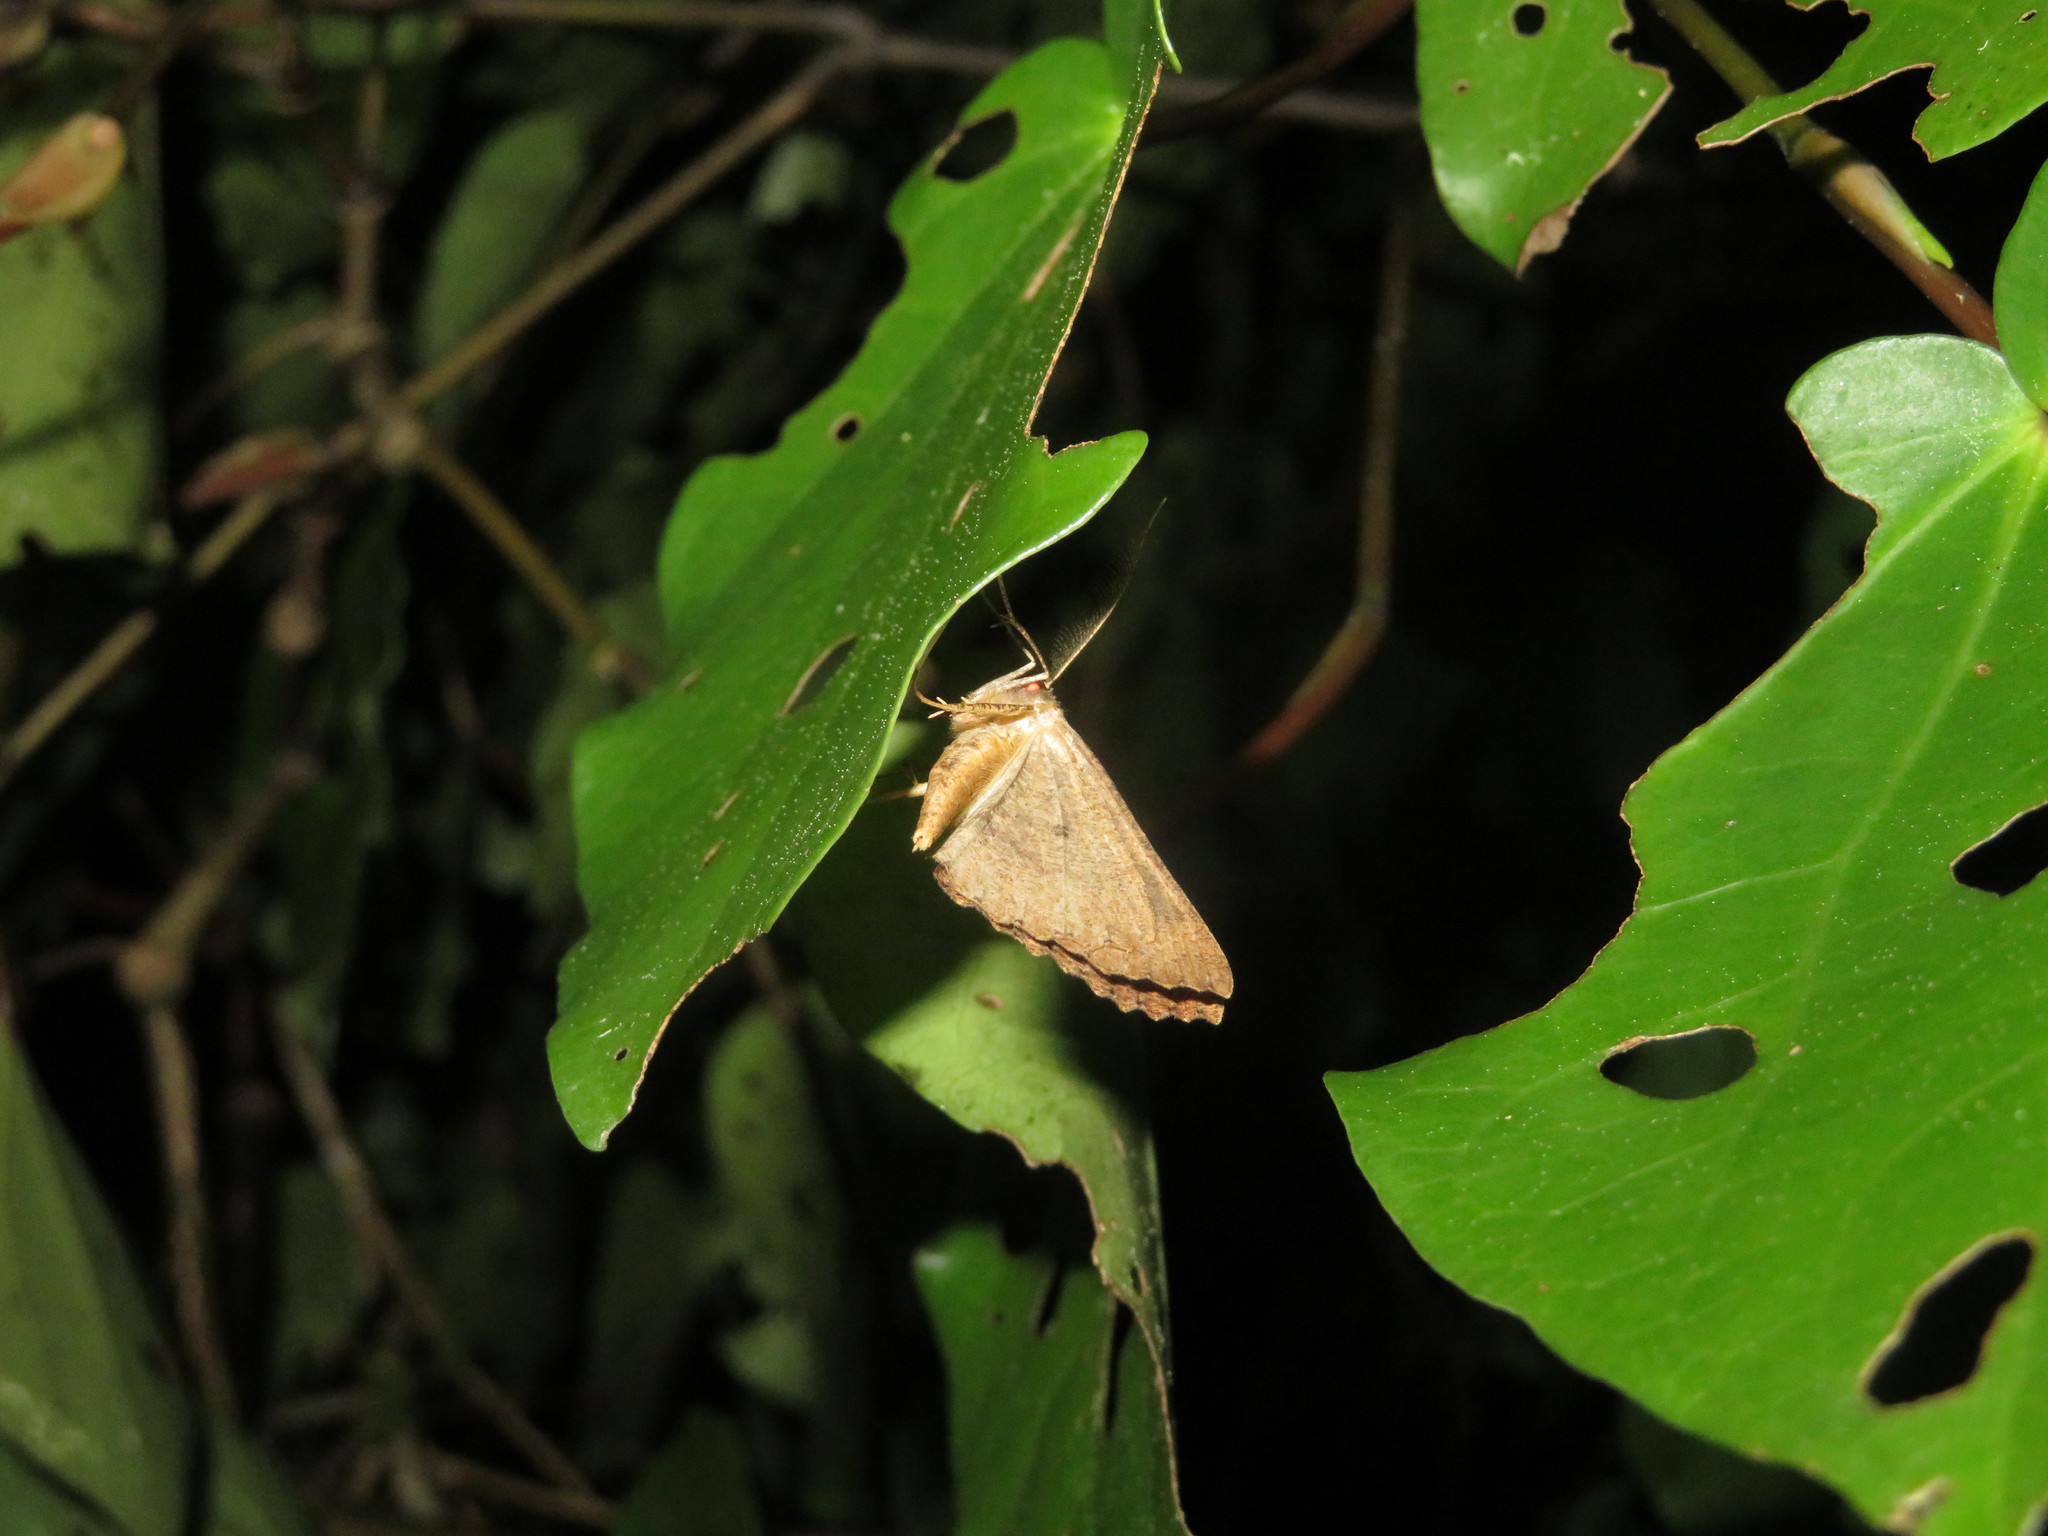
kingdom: Animalia
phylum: Arthropoda
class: Insecta
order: Lepidoptera
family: Geometridae
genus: Cleora
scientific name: Cleora scriptaria
